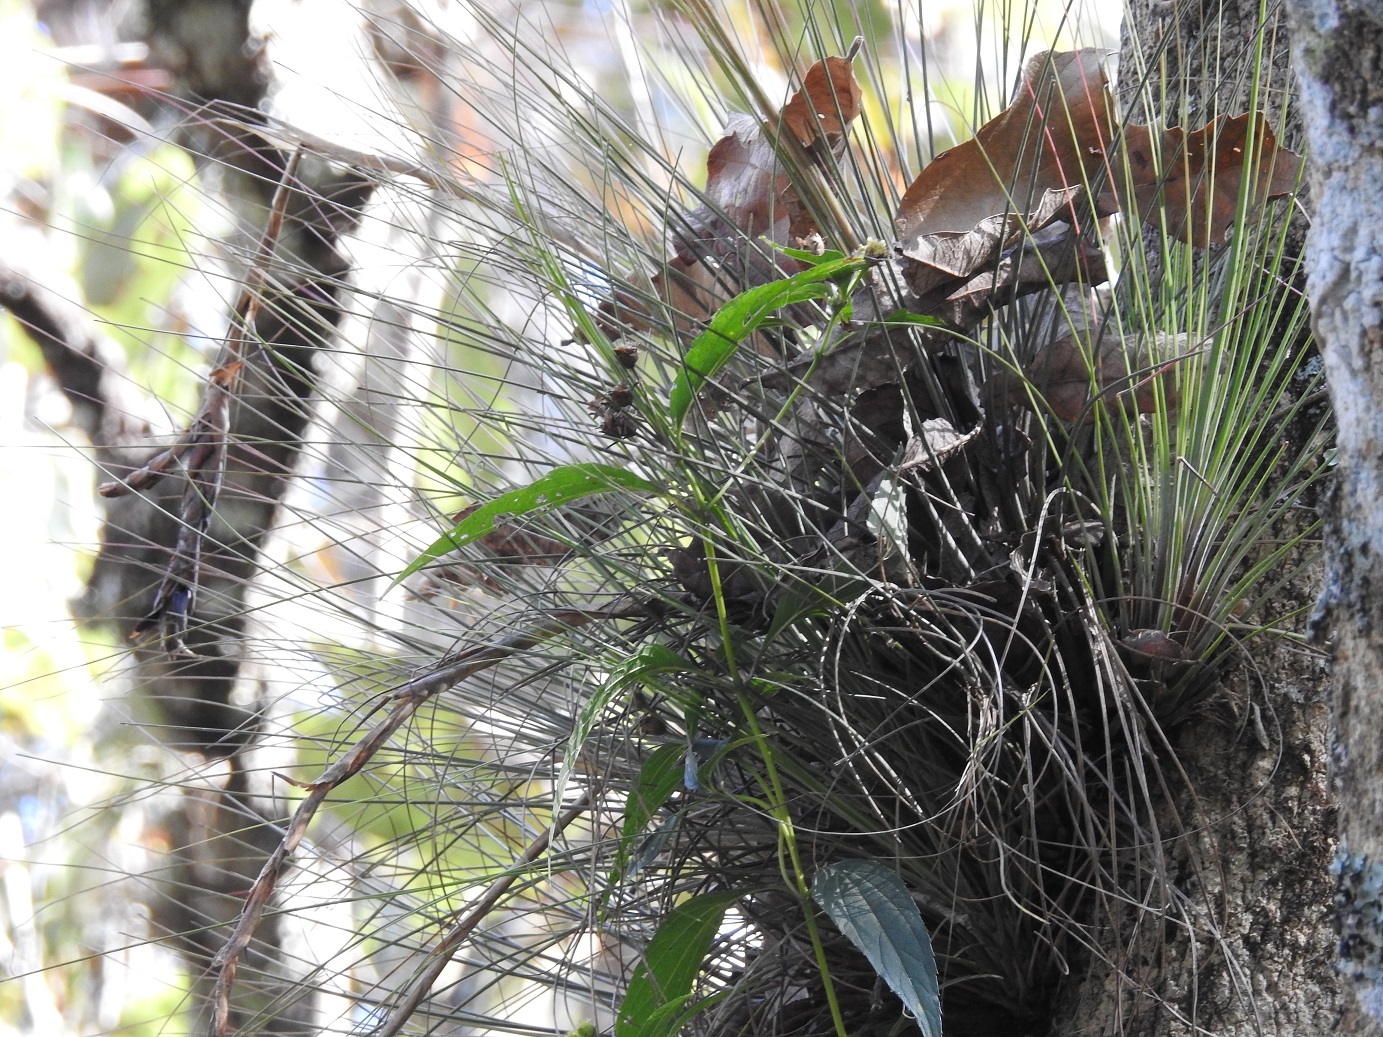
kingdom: Plantae
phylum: Tracheophyta
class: Liliopsida
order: Poales
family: Bromeliaceae
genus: Tillandsia
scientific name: Tillandsia juncea
